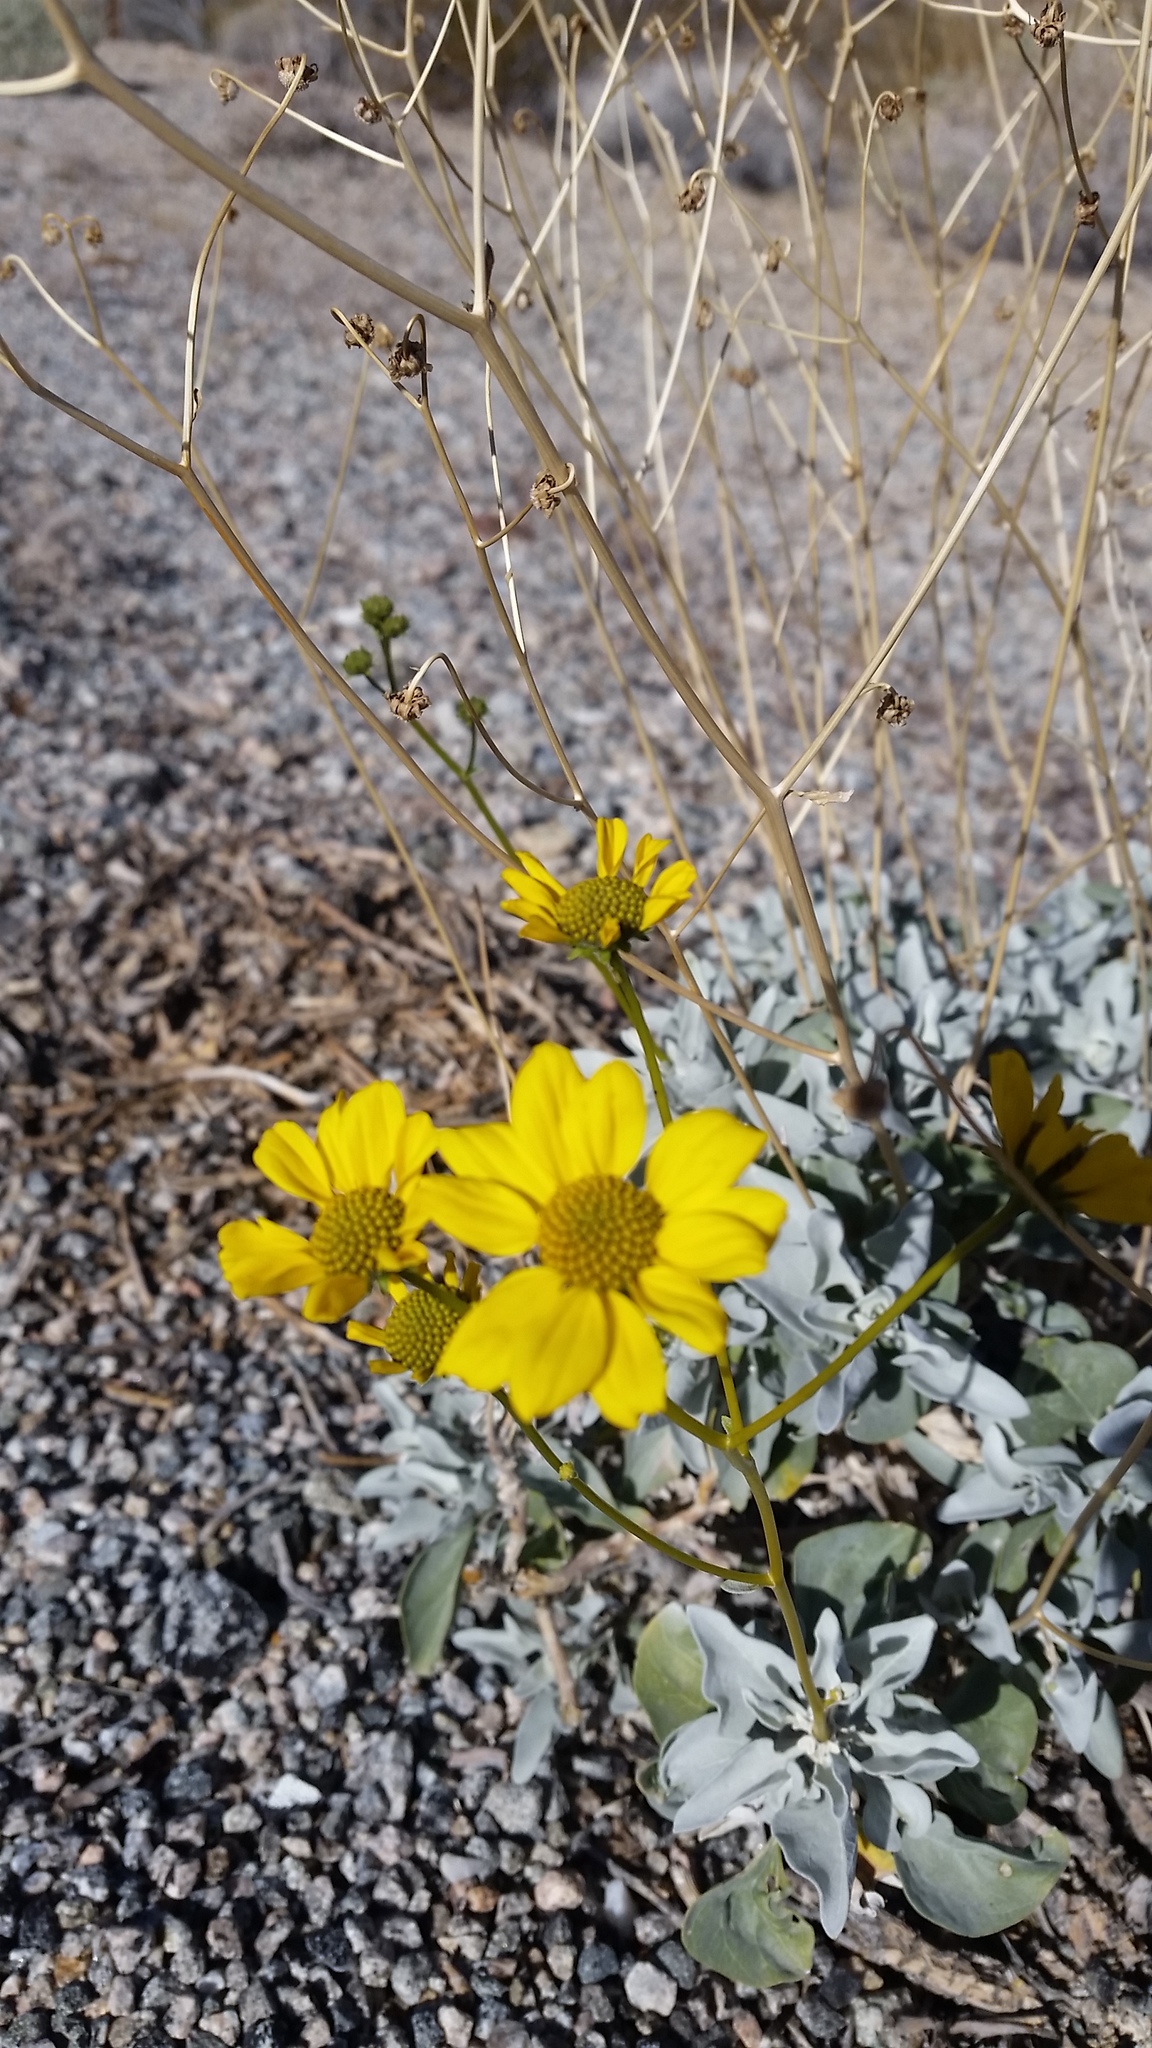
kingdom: Plantae
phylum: Tracheophyta
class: Magnoliopsida
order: Asterales
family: Asteraceae
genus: Encelia
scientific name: Encelia farinosa
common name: Brittlebush
